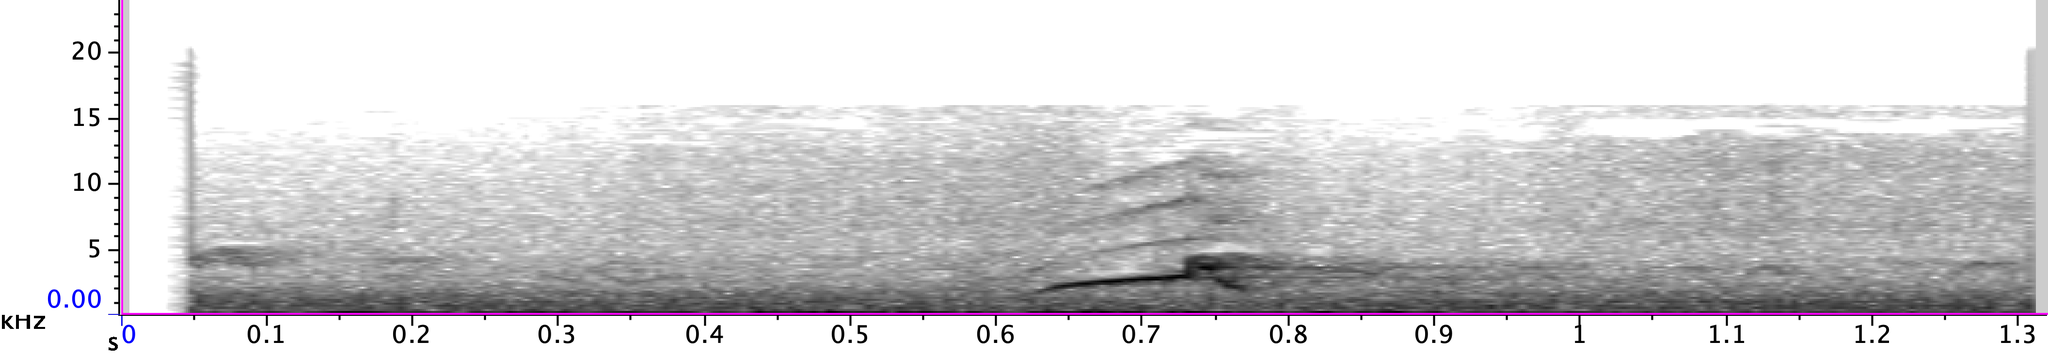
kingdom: Animalia
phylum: Chordata
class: Aves
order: Passeriformes
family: Tyrannidae
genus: Myiarchus
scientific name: Myiarchus crinitus
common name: Great crested flycatcher
